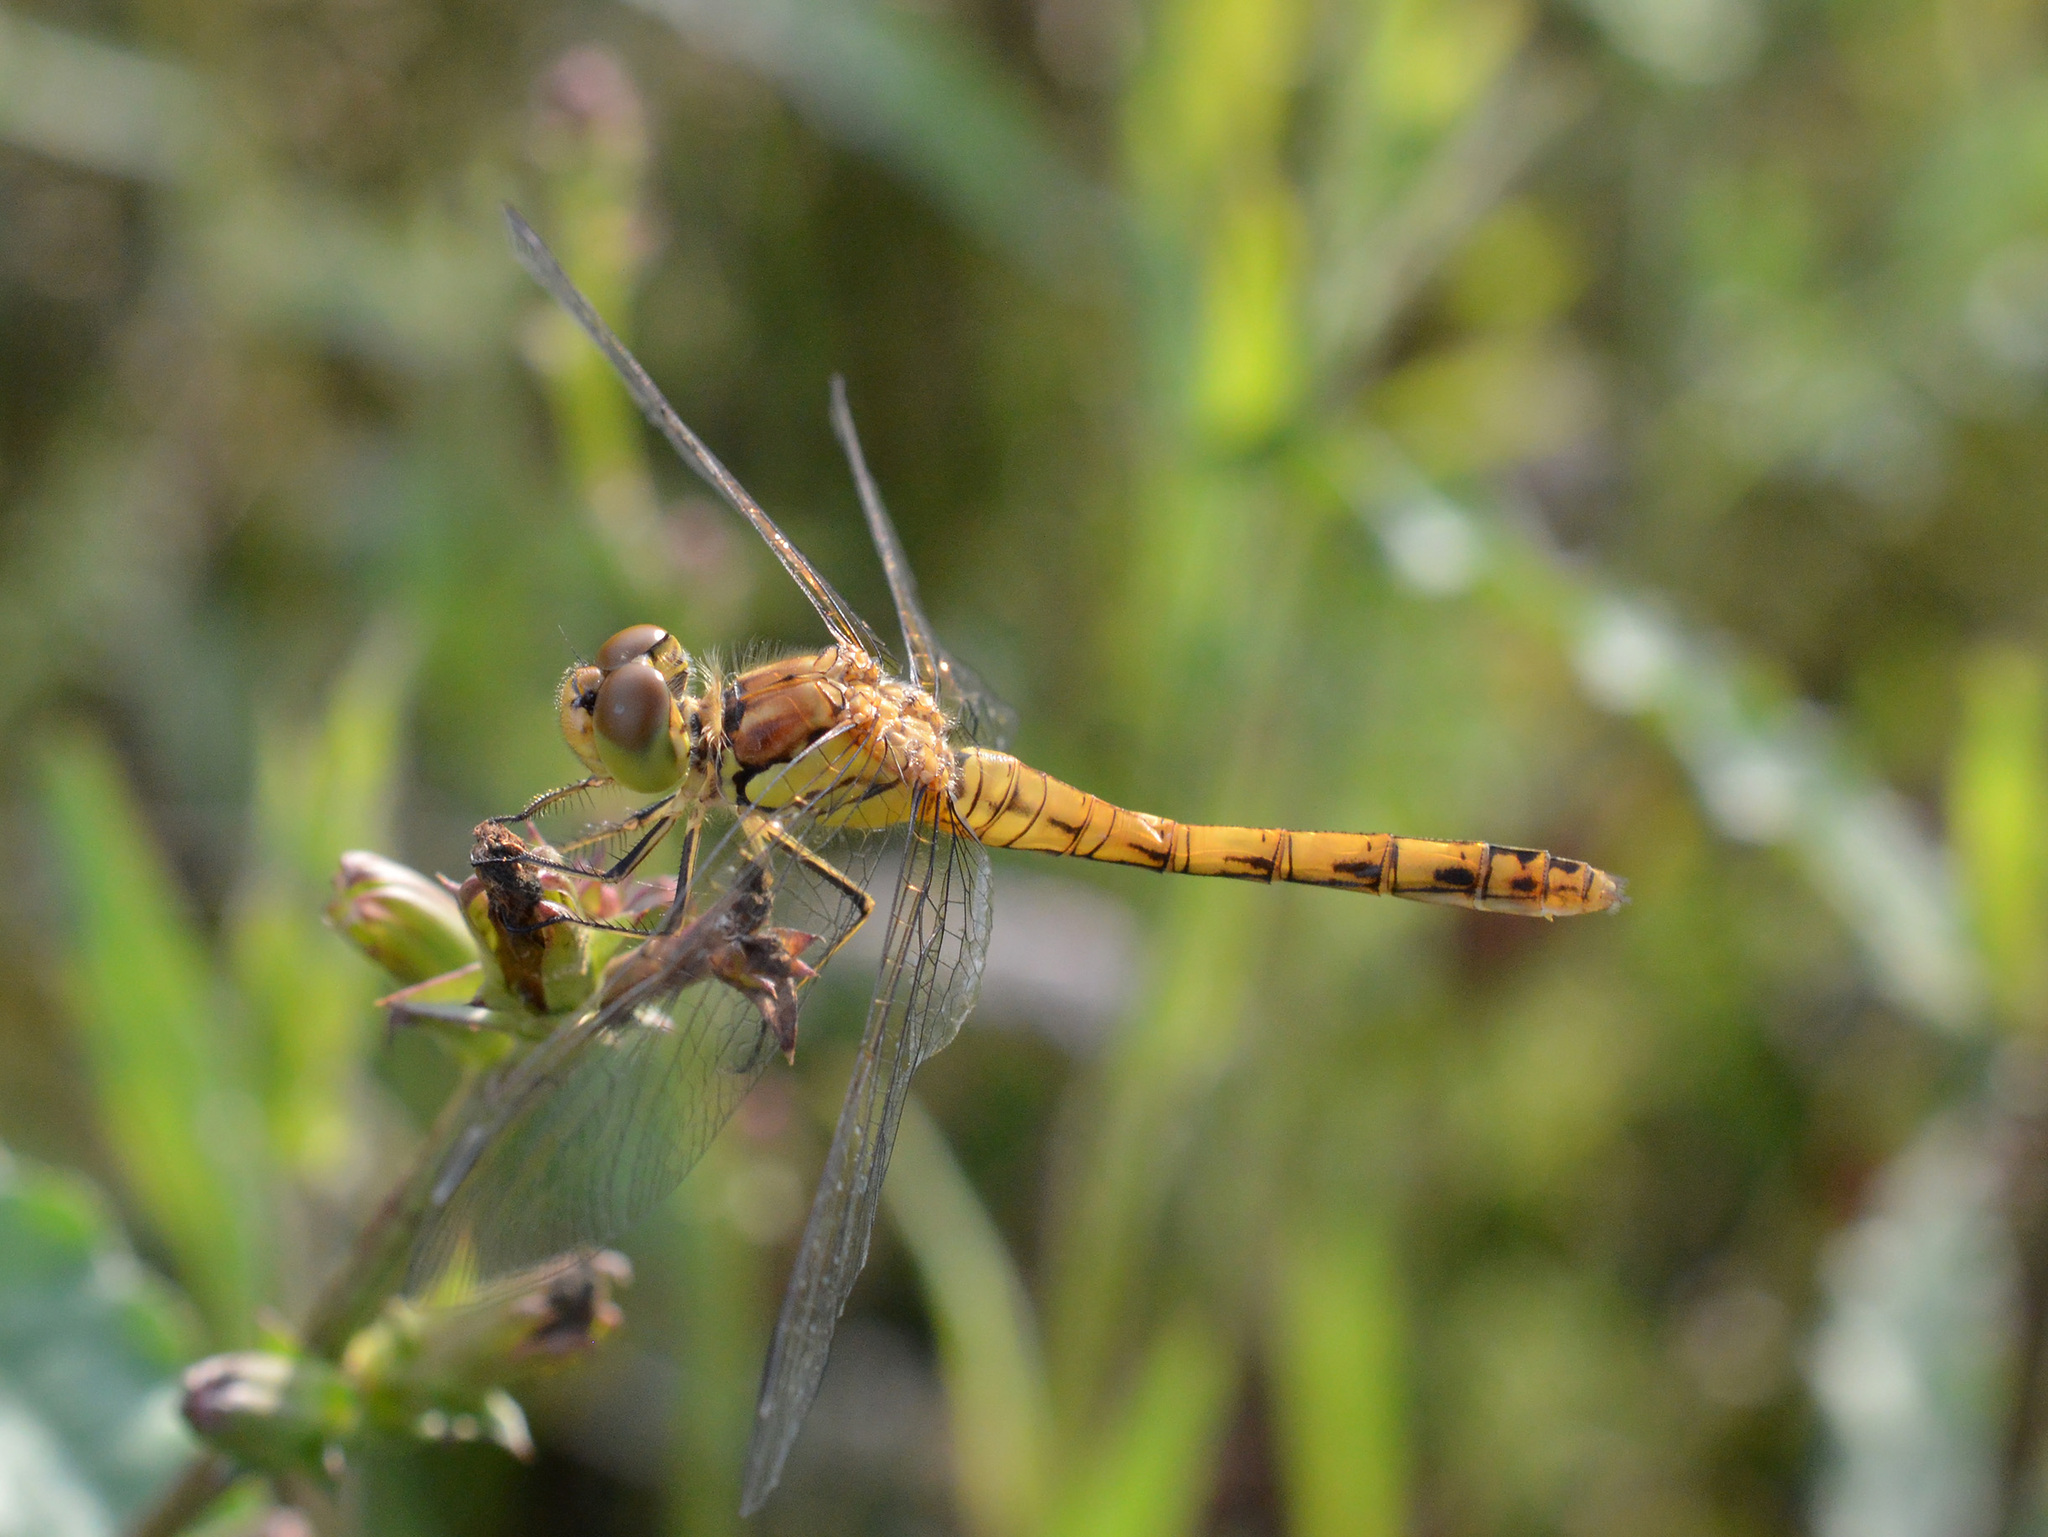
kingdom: Animalia
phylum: Arthropoda
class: Insecta
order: Odonata
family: Libellulidae
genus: Sympetrum
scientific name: Sympetrum striolatum
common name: Common darter
